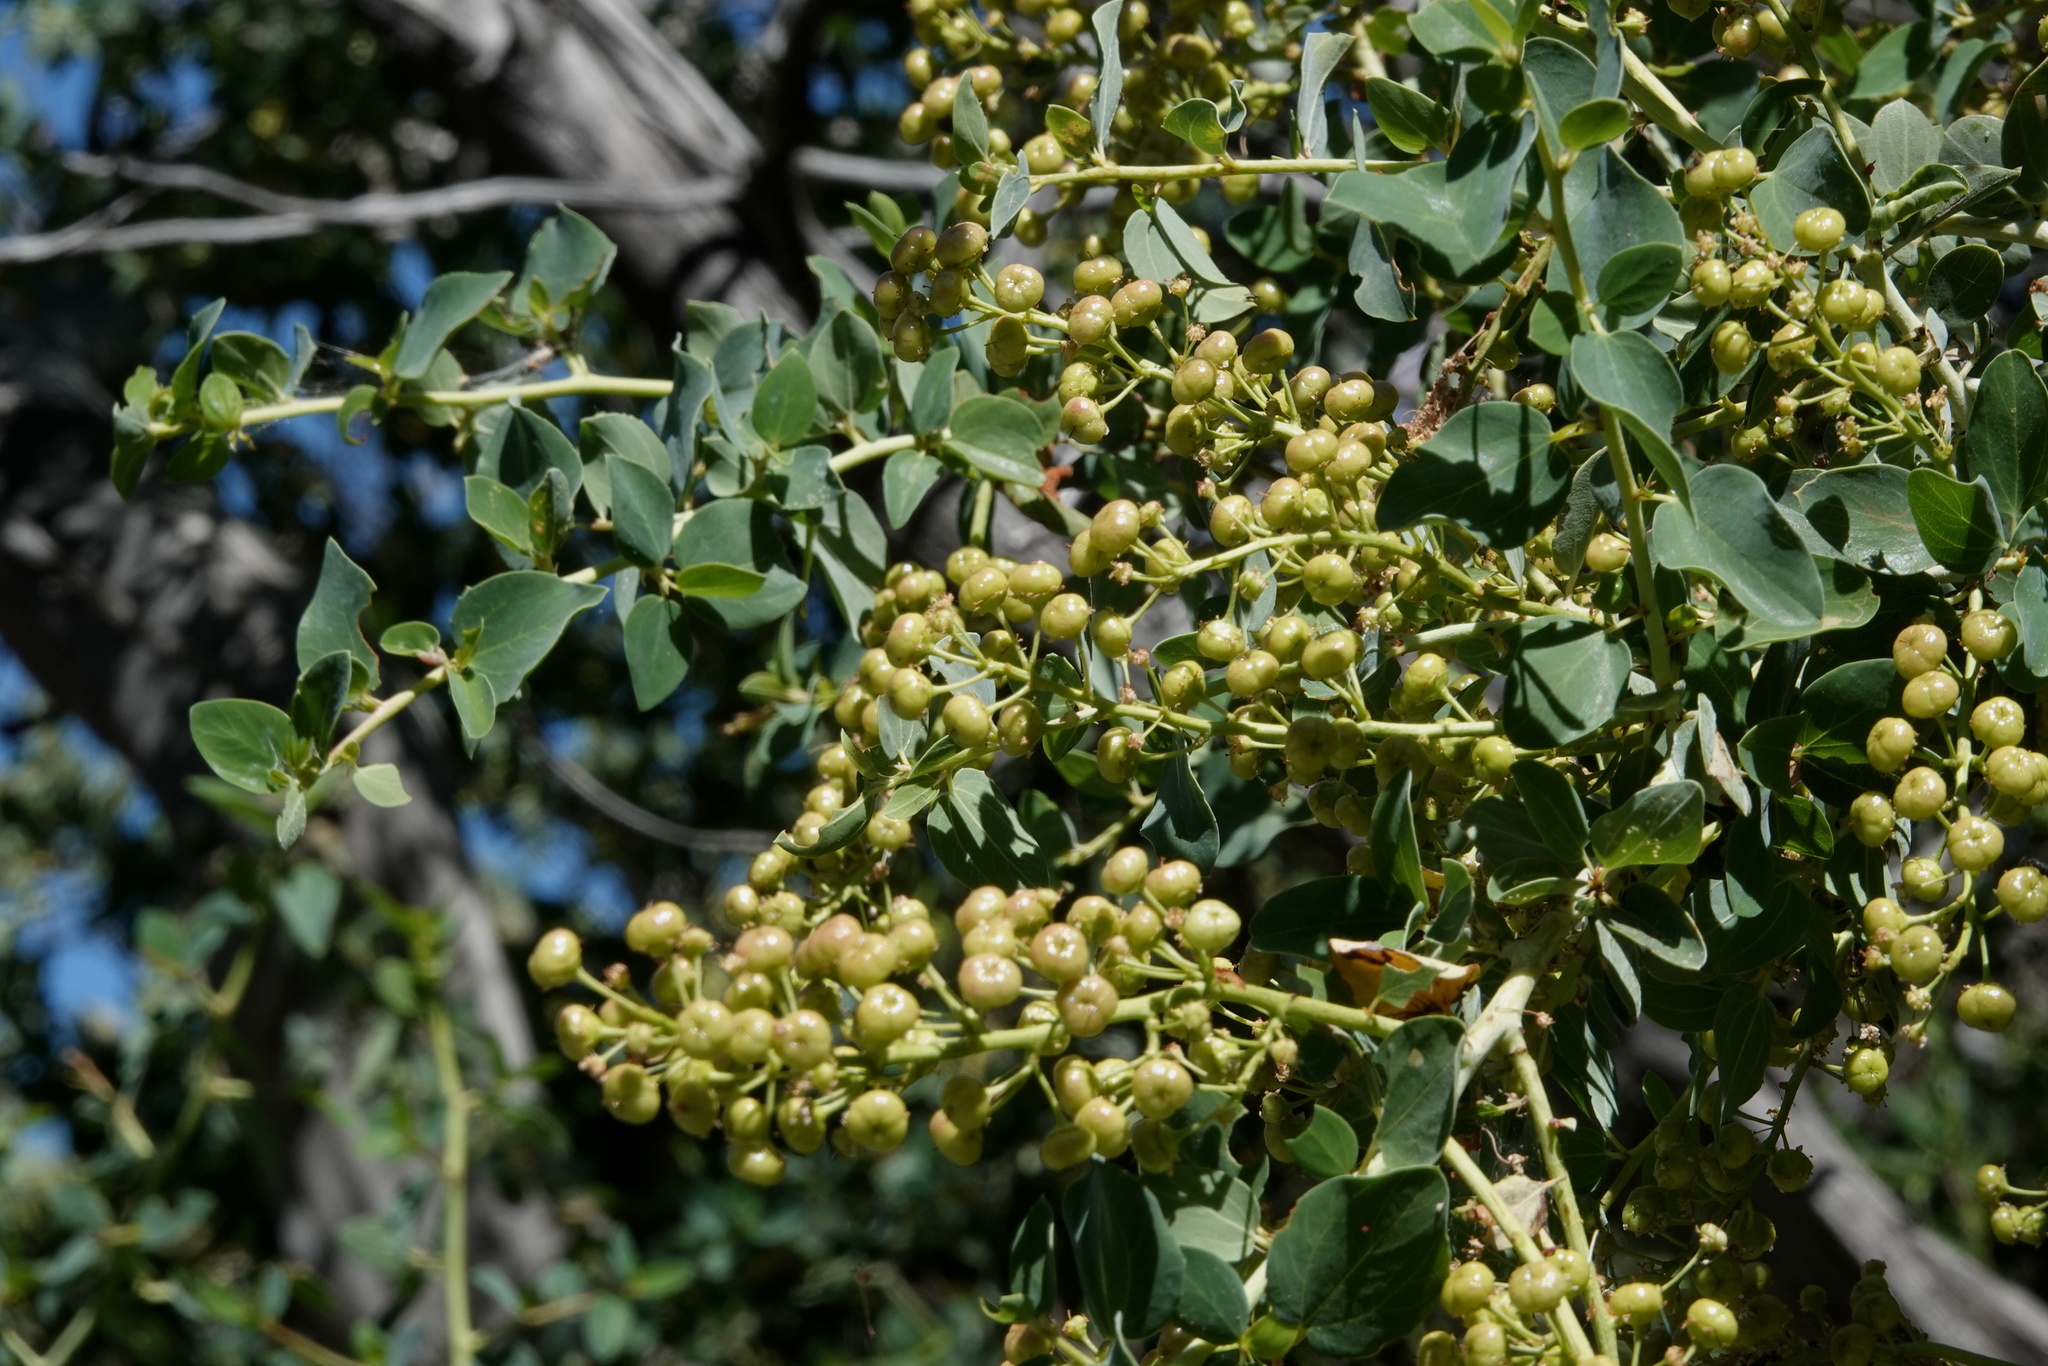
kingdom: Plantae
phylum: Tracheophyta
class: Magnoliopsida
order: Rosales
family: Rhamnaceae
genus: Ceanothus
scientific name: Ceanothus leucodermis
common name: Chaparral whitethorn
